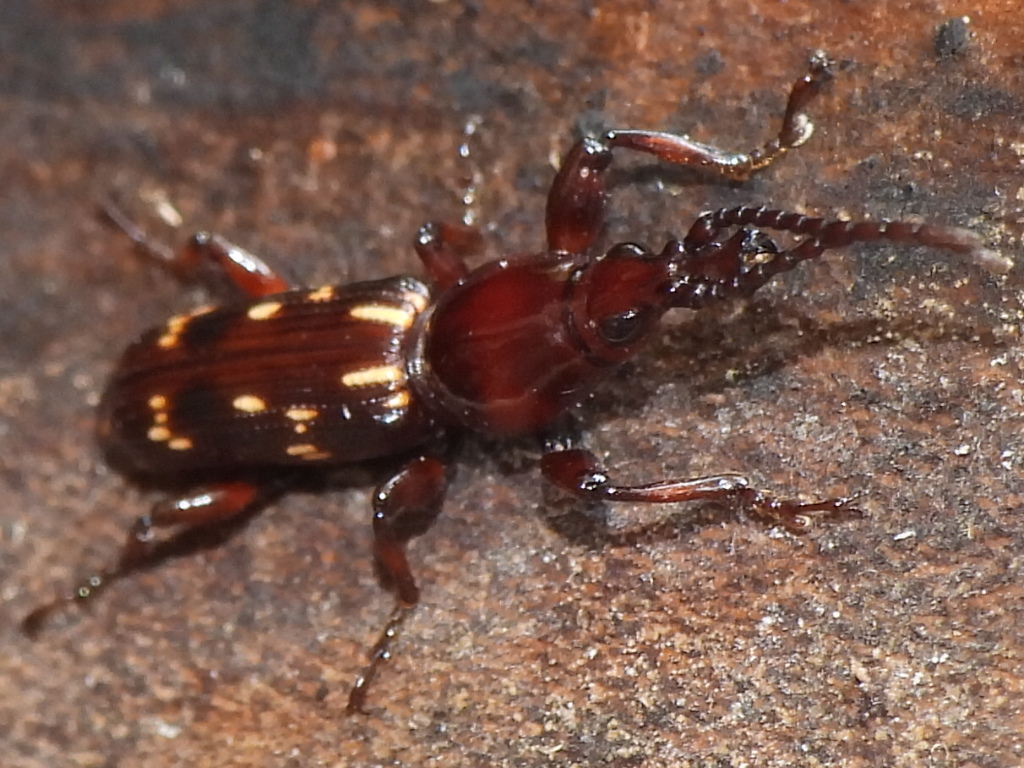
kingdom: Animalia
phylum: Arthropoda
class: Insecta
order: Coleoptera
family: Brentidae
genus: Arrenodes
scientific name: Arrenodes minutus
